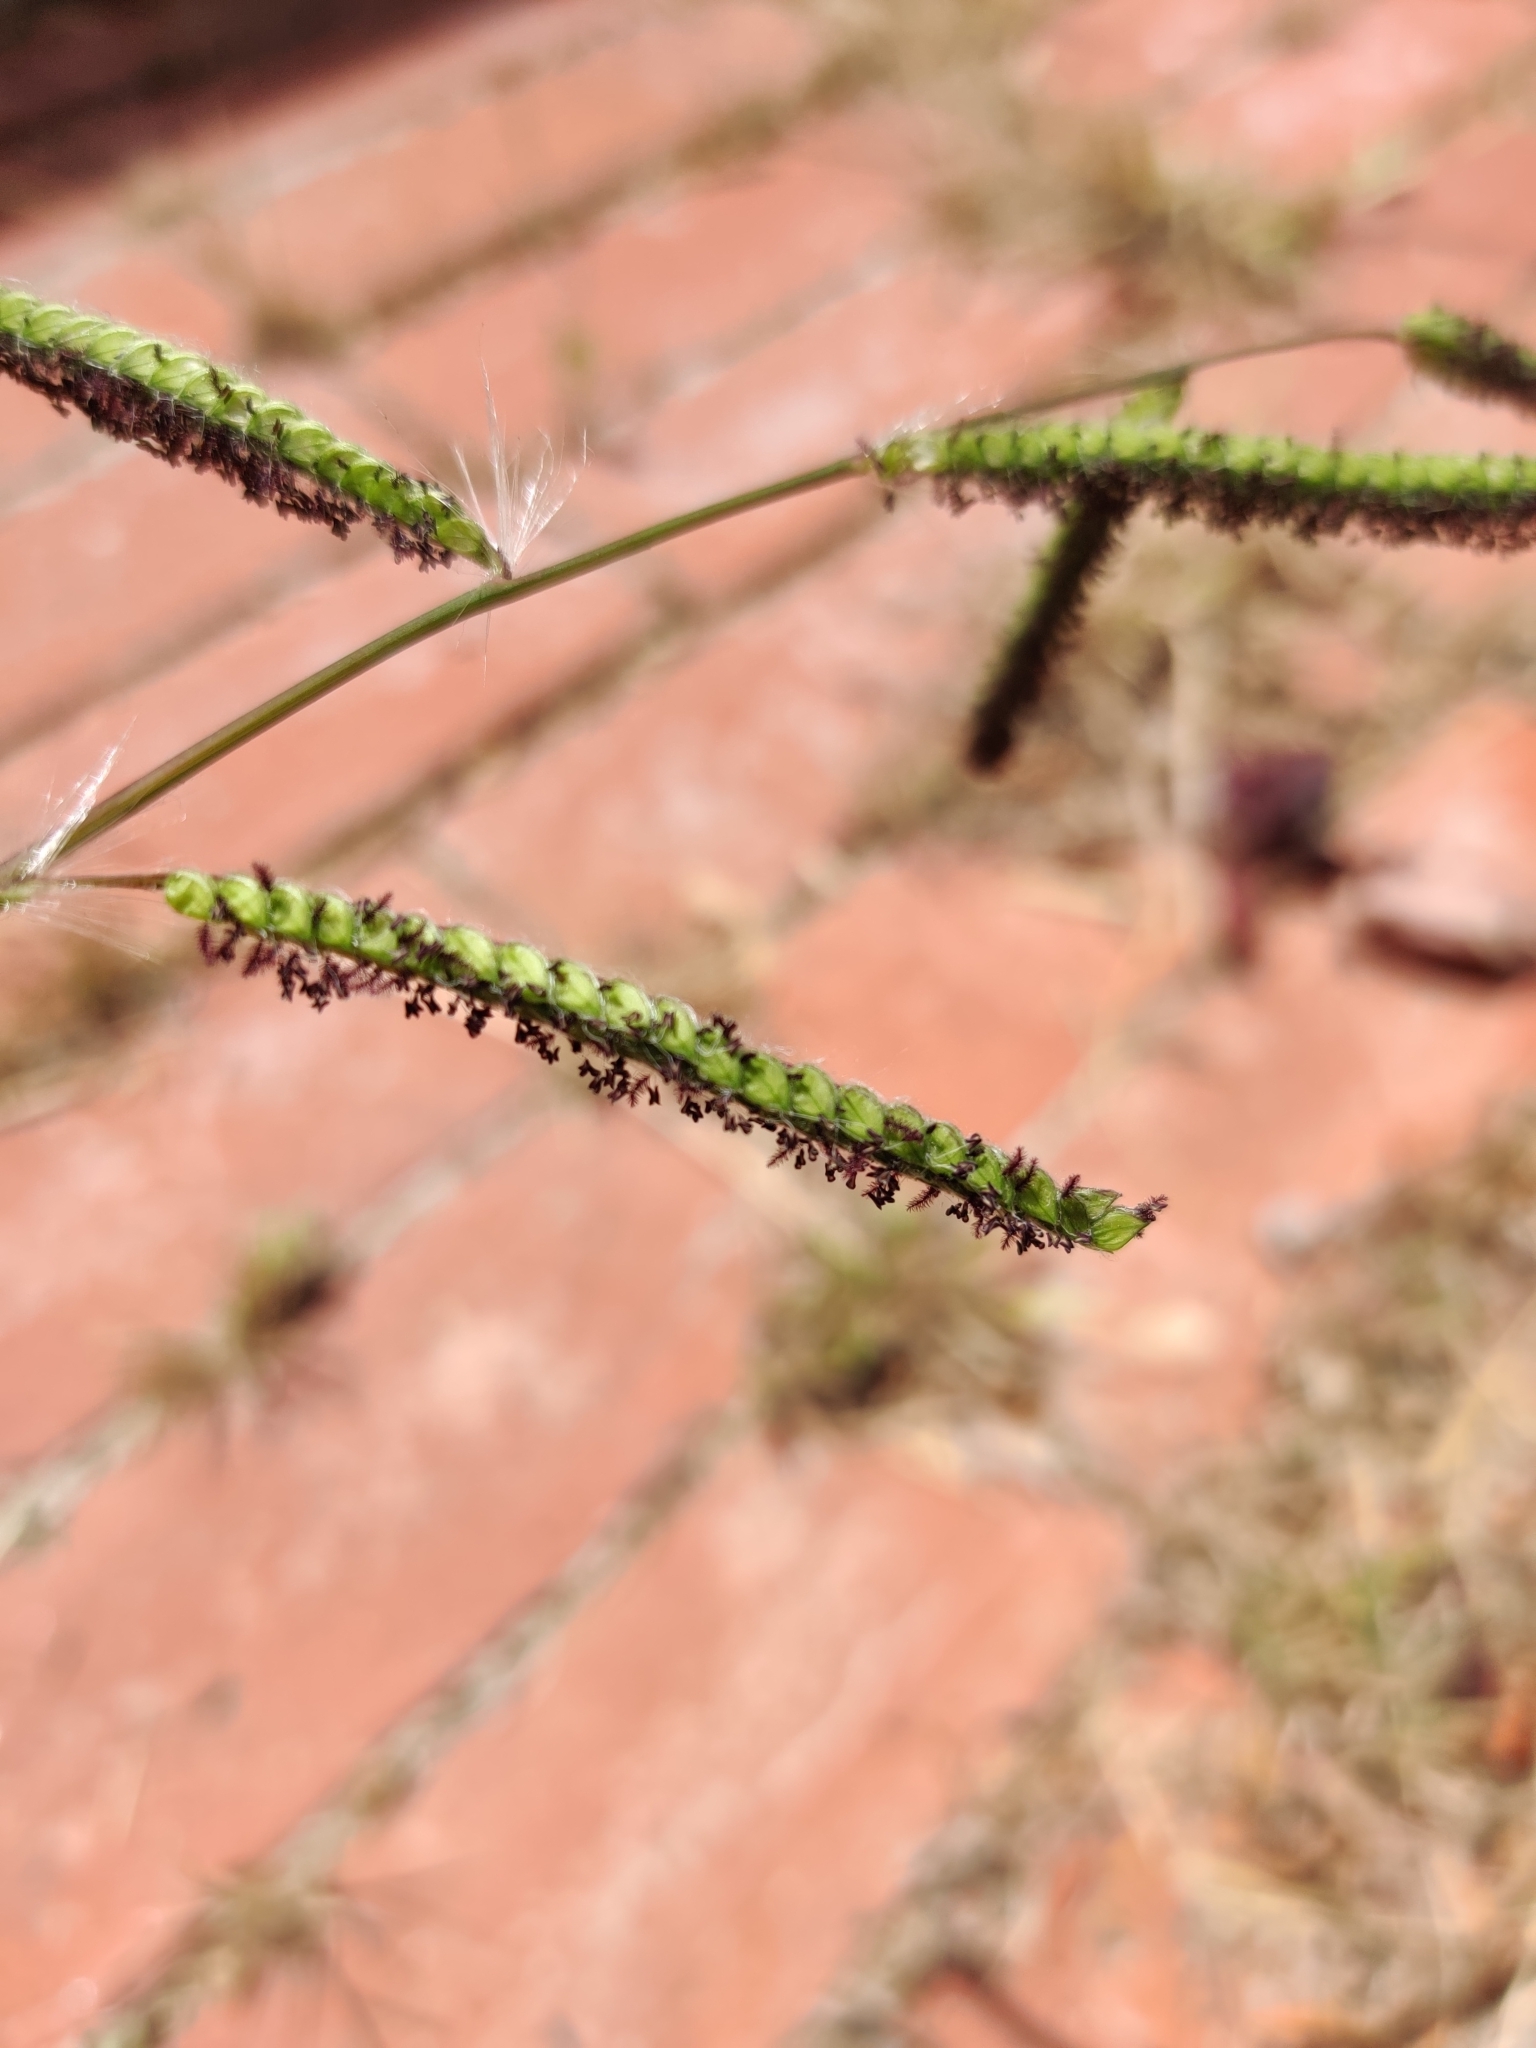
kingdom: Plantae
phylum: Tracheophyta
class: Liliopsida
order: Poales
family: Poaceae
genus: Paspalum
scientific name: Paspalum dilatatum
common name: Dallisgrass
